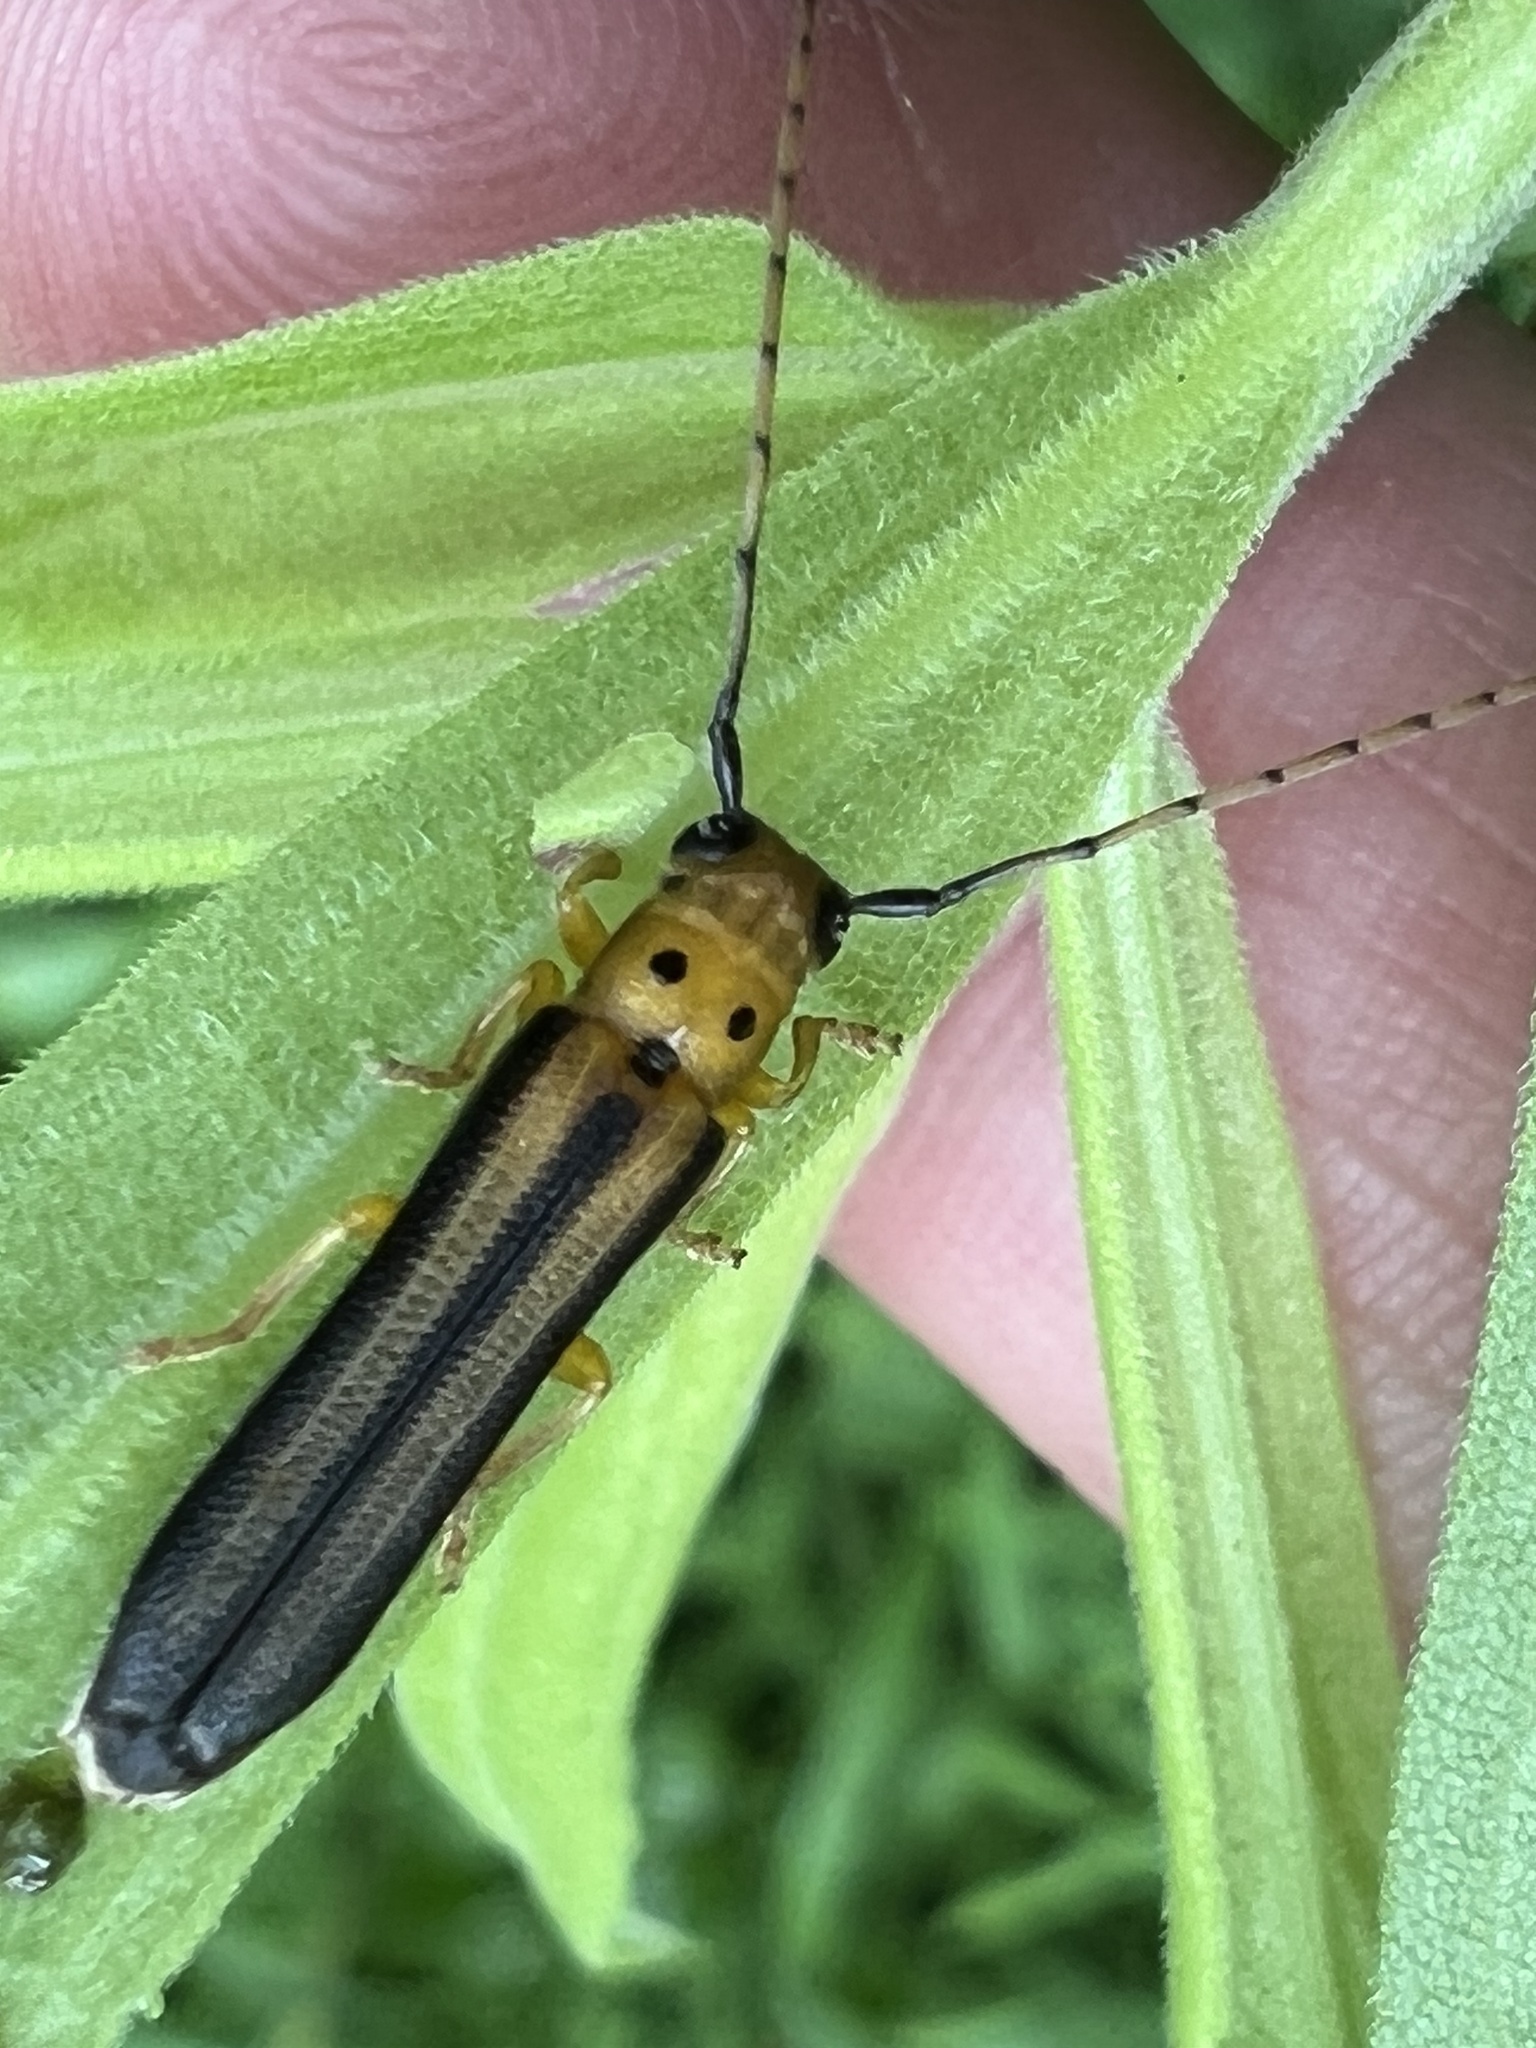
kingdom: Animalia
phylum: Arthropoda
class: Insecta
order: Coleoptera
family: Cerambycidae
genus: Oberea
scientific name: Oberea tripunctata
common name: Dogwood twig borer
